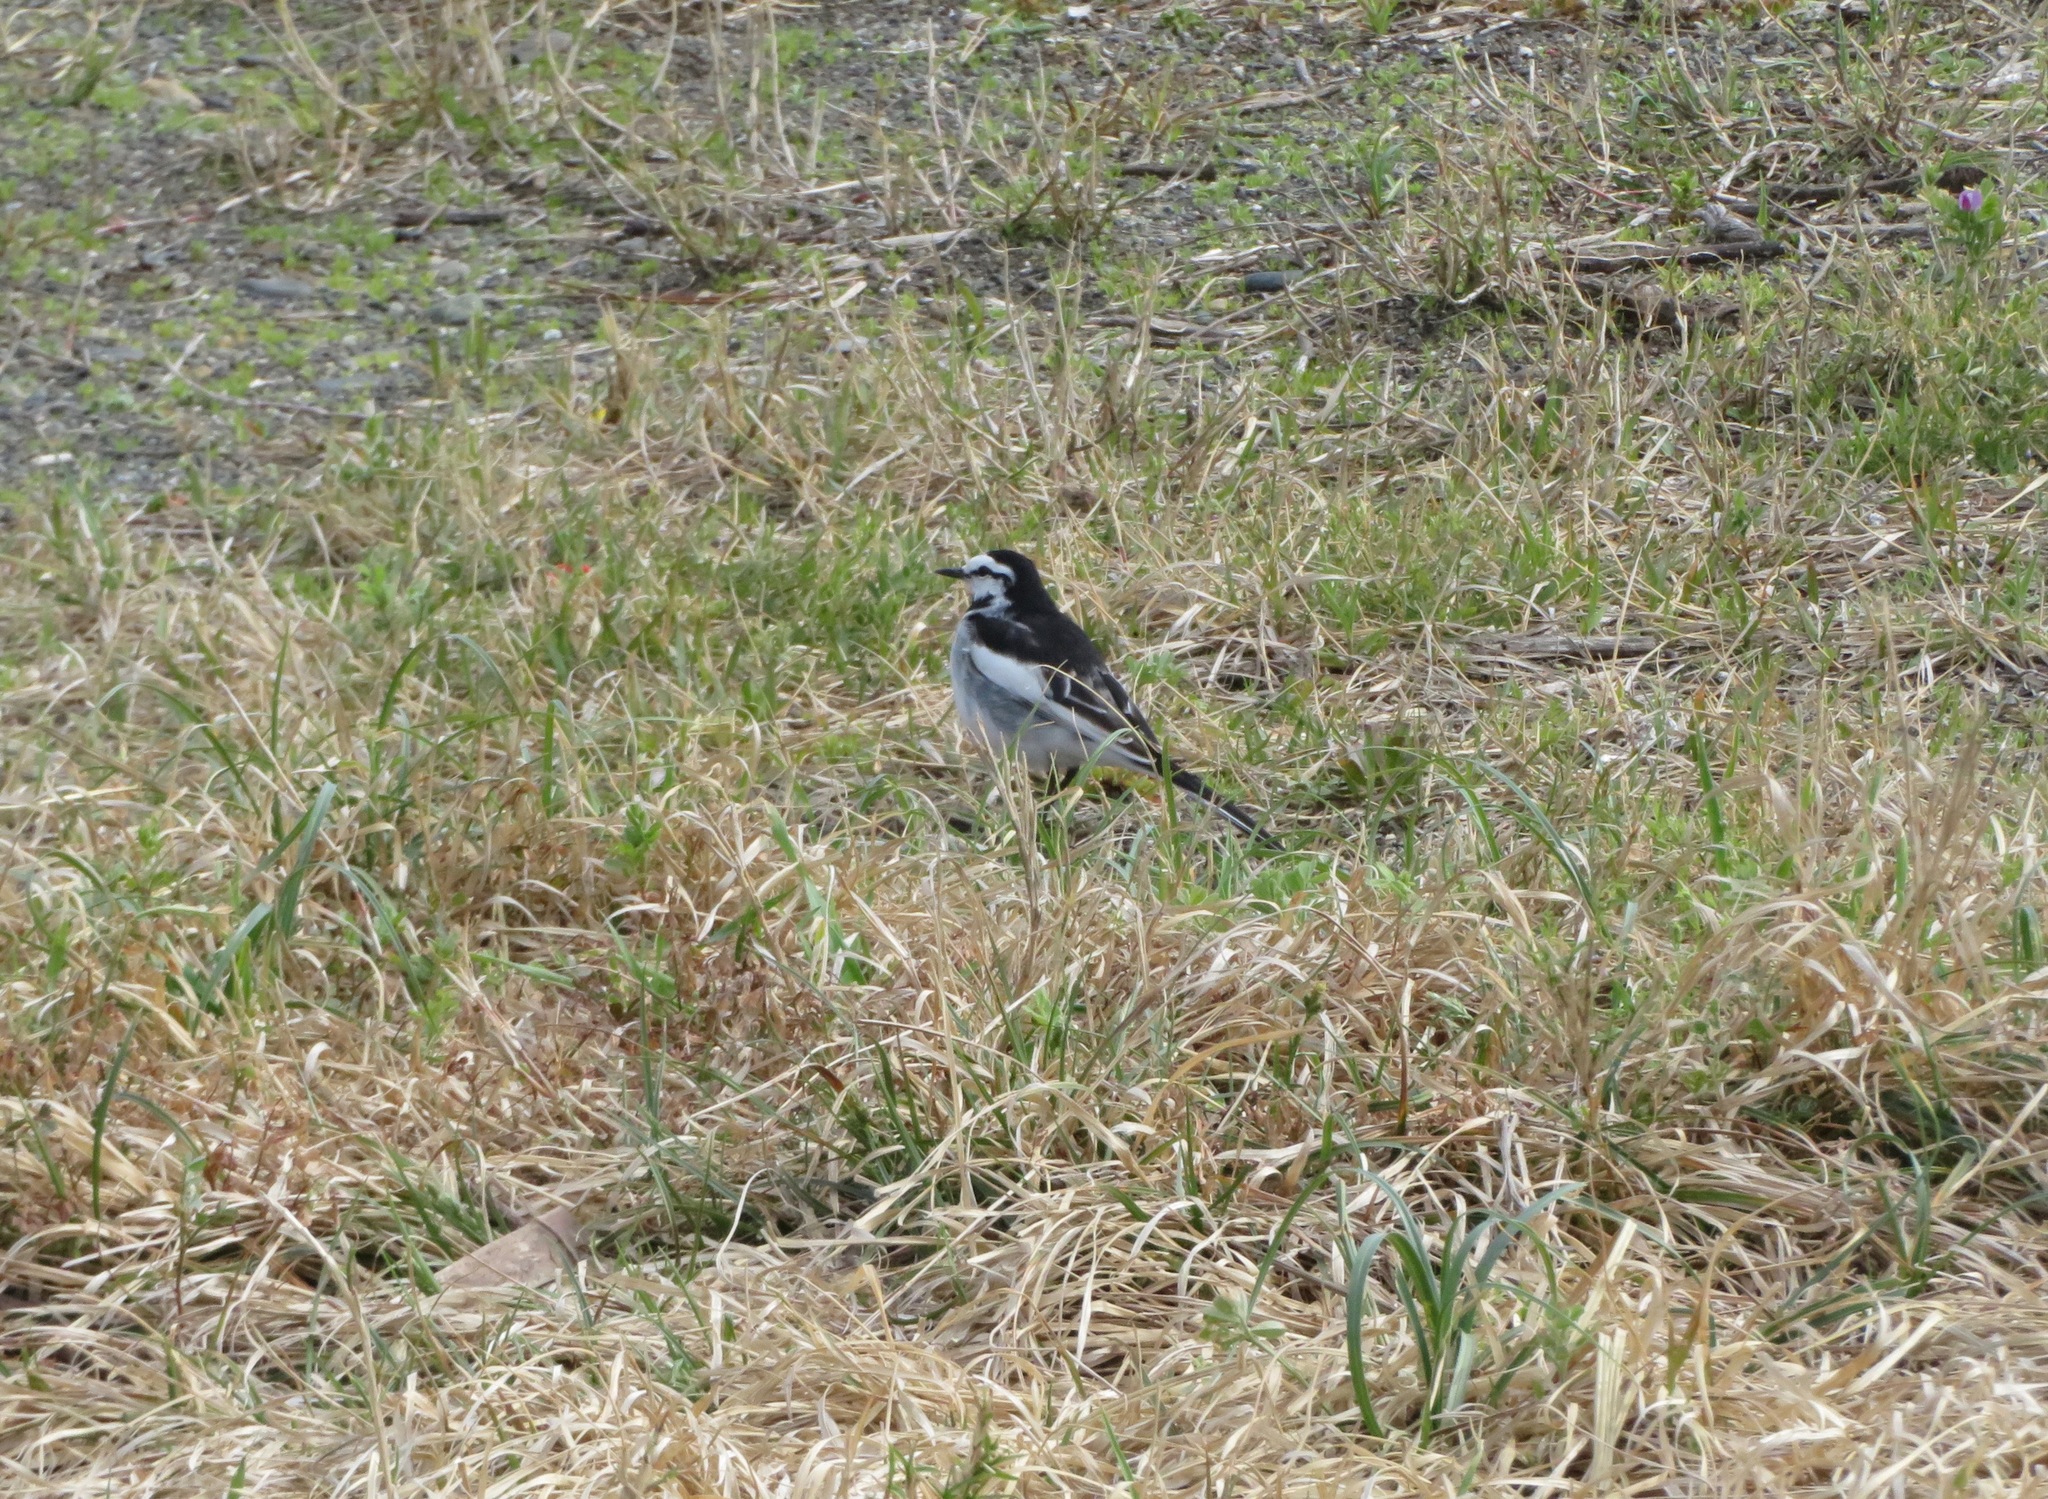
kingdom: Animalia
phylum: Chordata
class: Aves
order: Passeriformes
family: Motacillidae
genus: Motacilla
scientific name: Motacilla alba
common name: White wagtail
